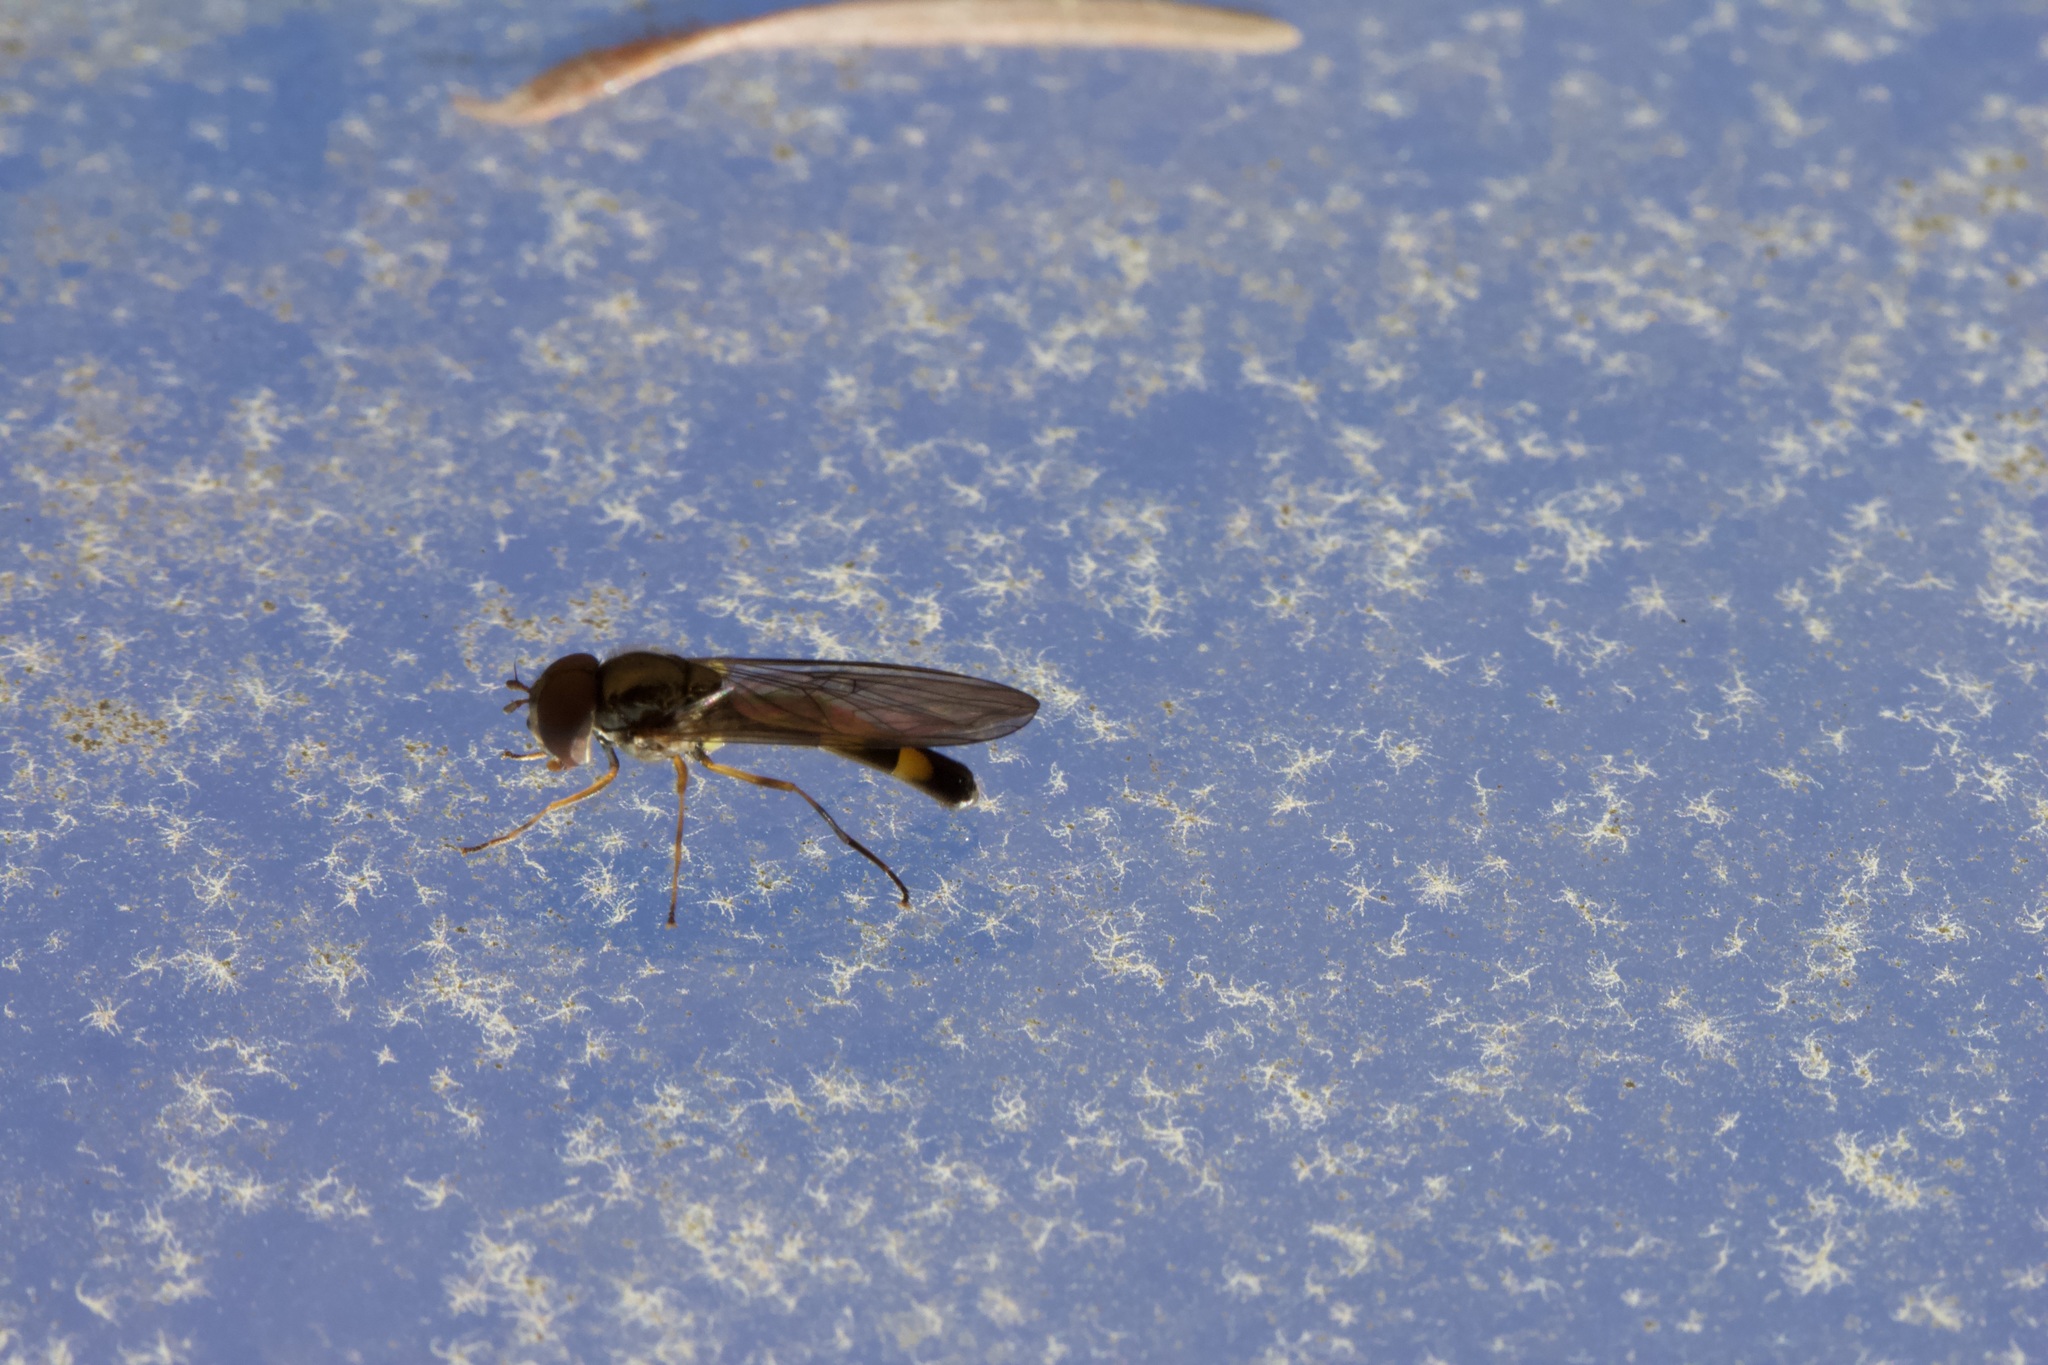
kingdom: Animalia
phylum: Arthropoda
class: Insecta
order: Diptera
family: Syrphidae
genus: Melanostoma
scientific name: Melanostoma mellina
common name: Hover fly
